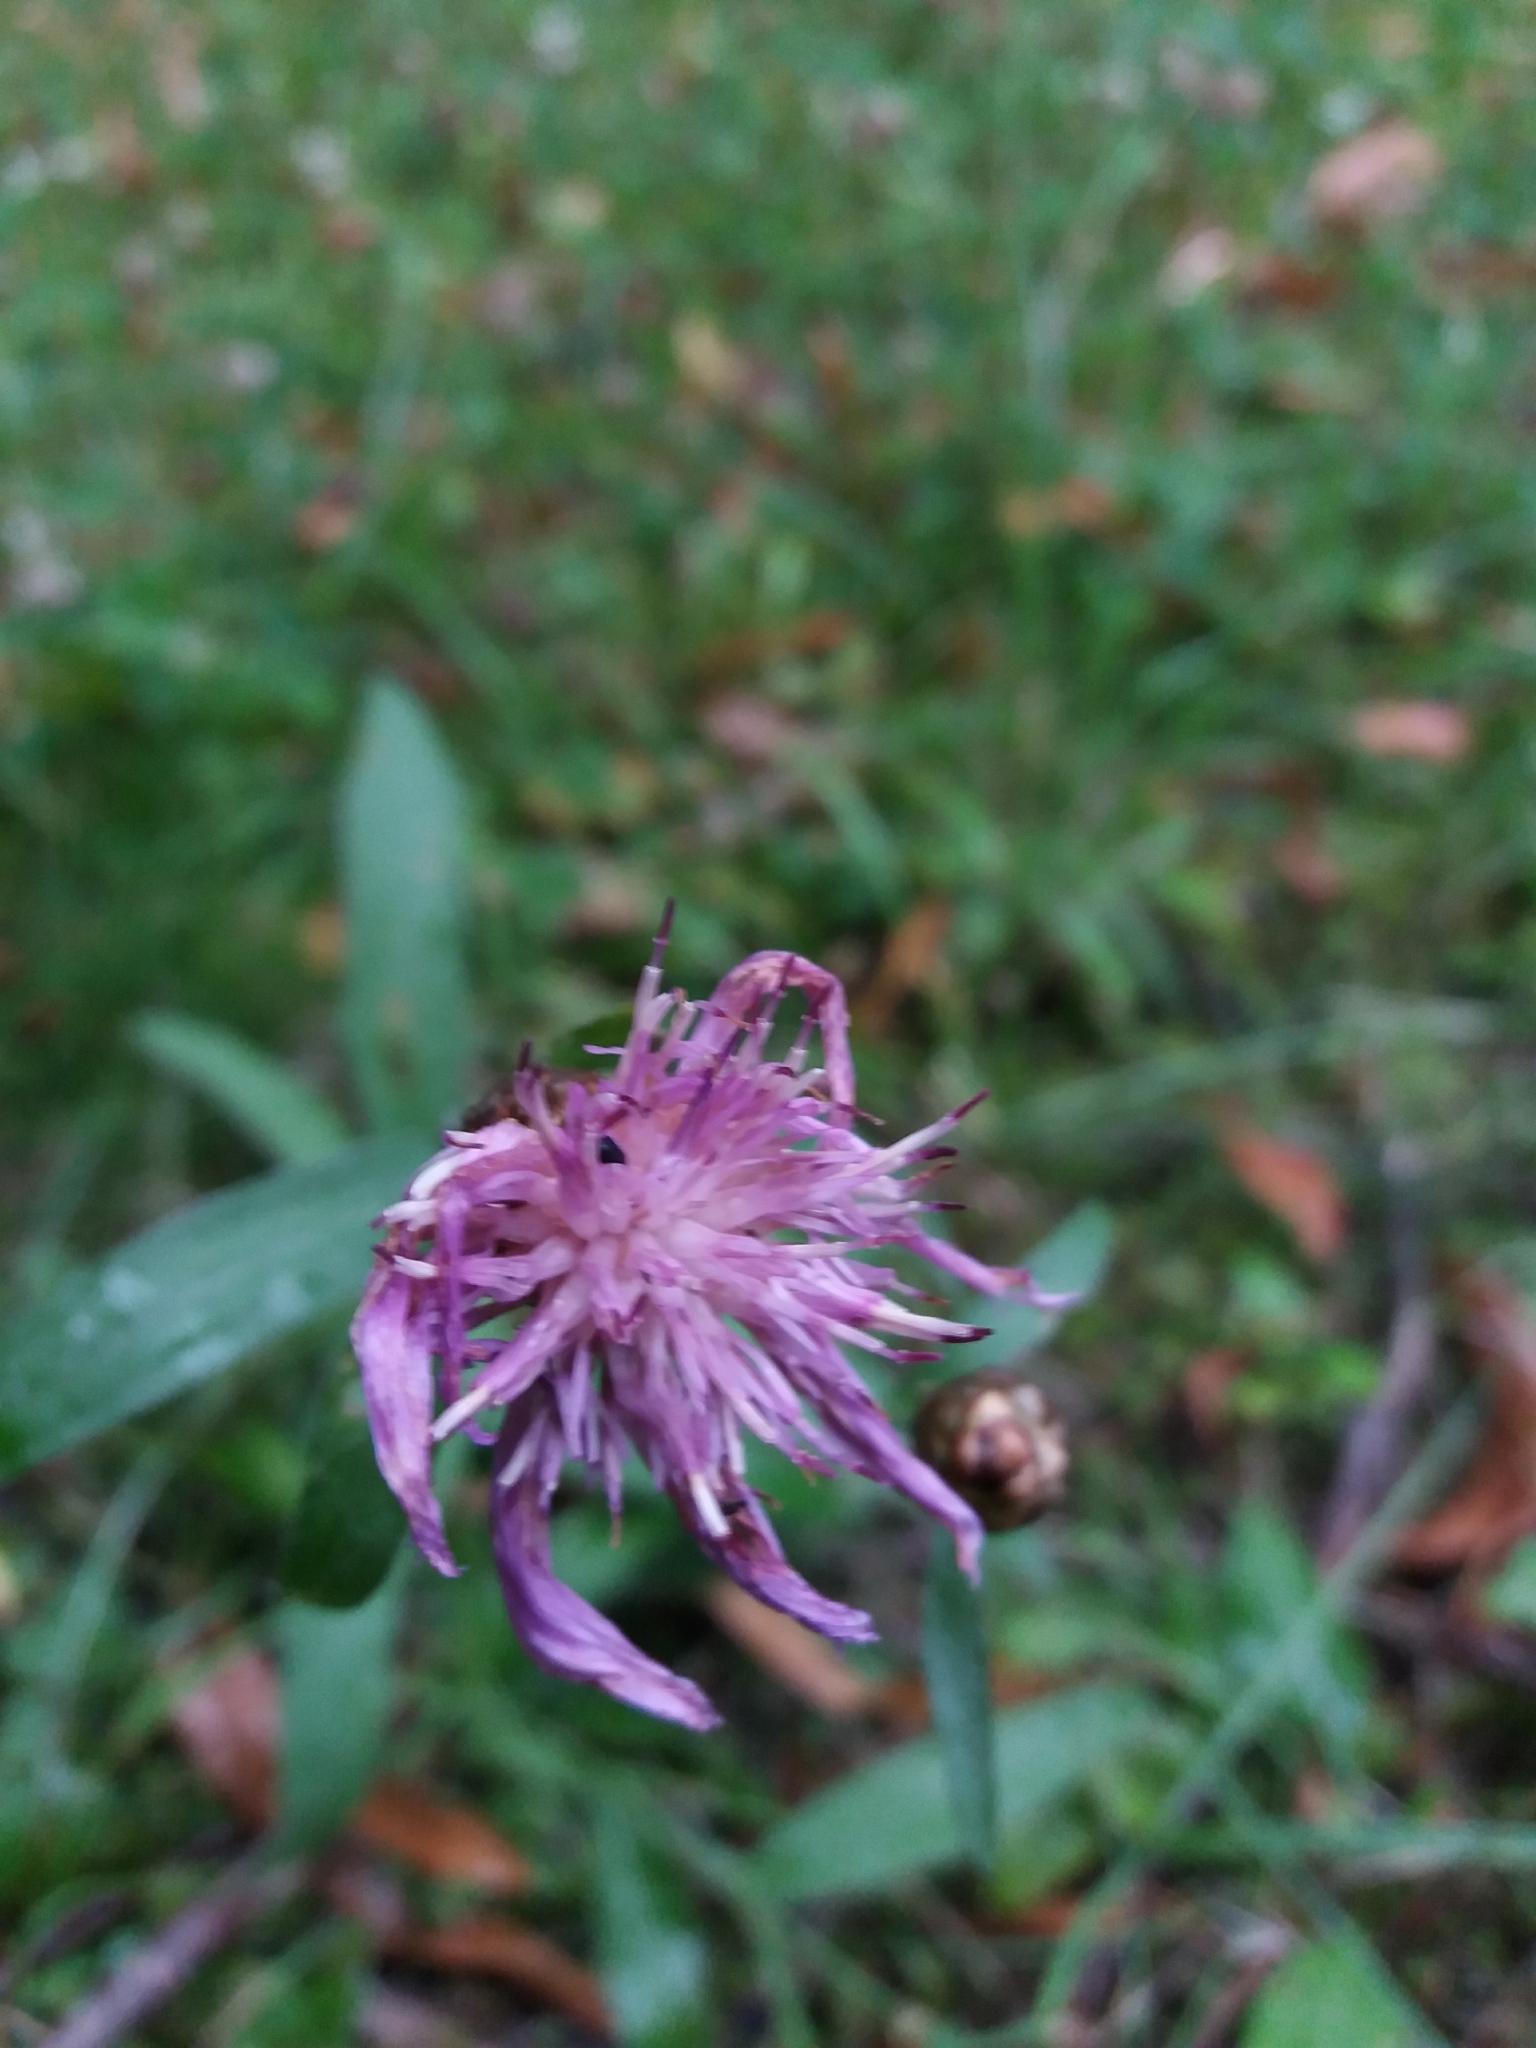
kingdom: Plantae
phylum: Tracheophyta
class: Magnoliopsida
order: Asterales
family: Asteraceae
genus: Centaurea
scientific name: Centaurea jacea
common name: Brown knapweed
